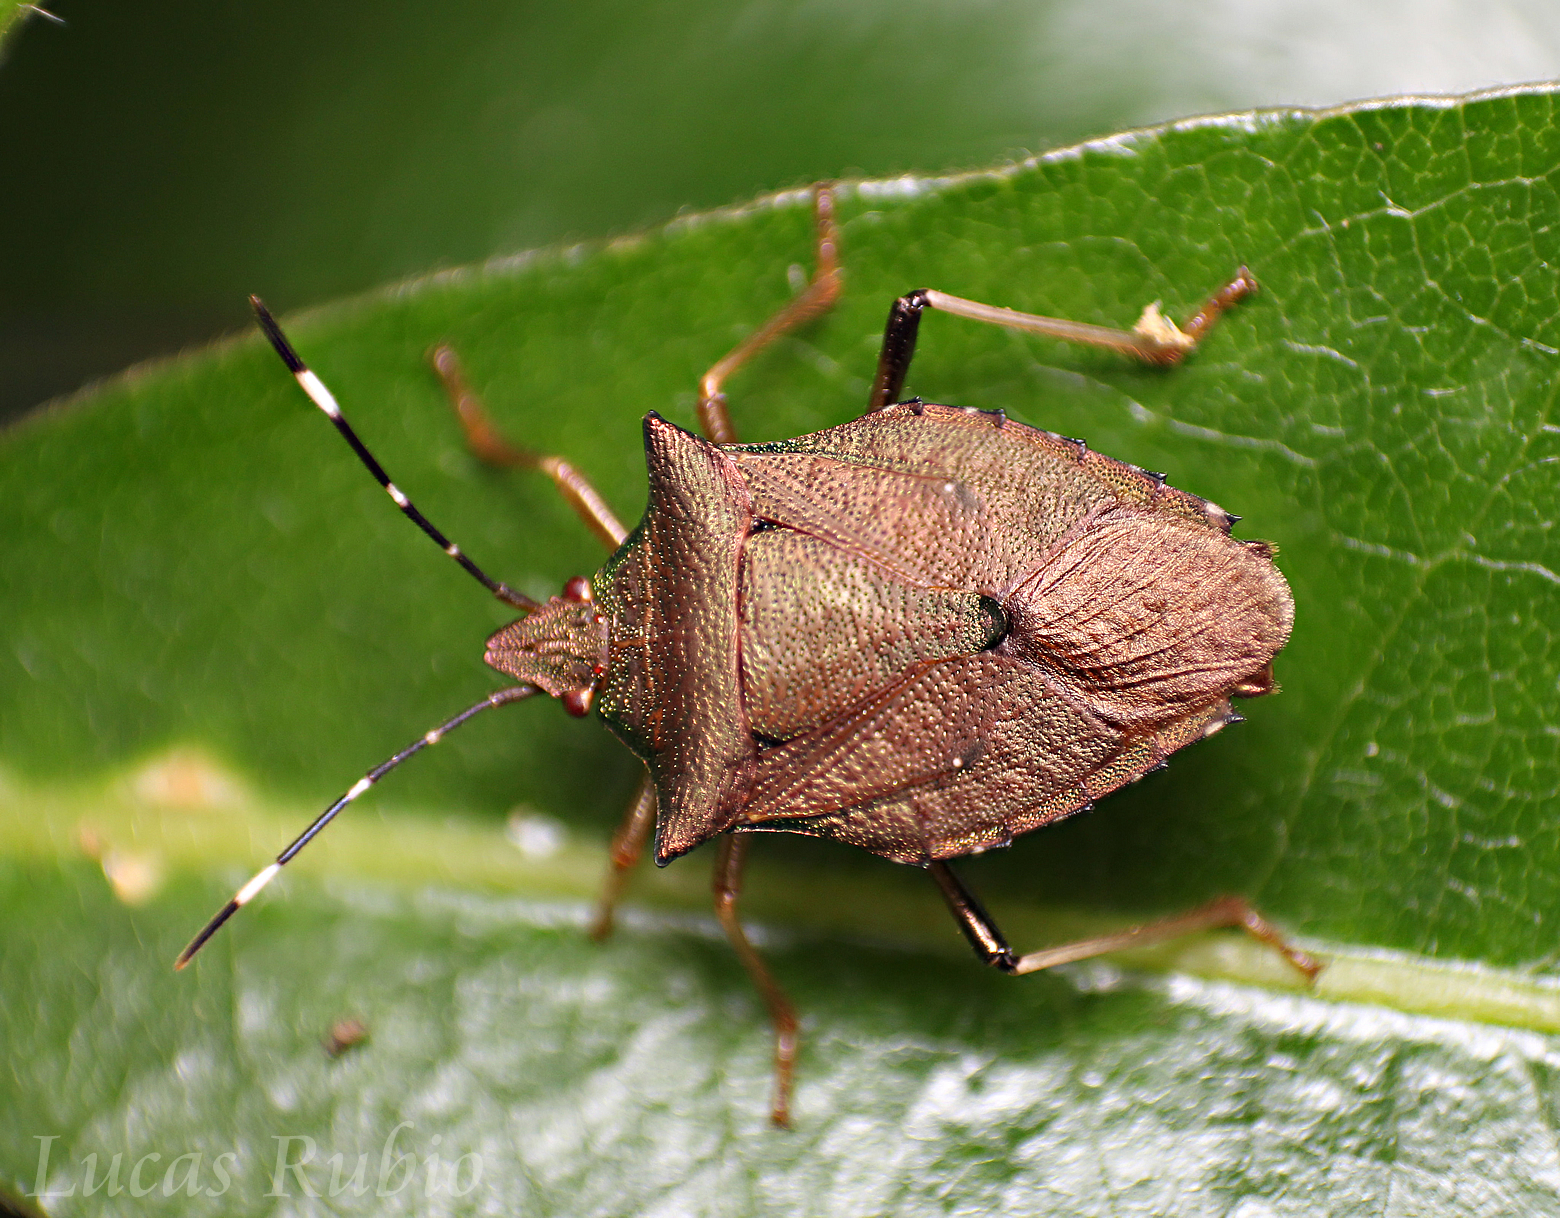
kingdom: Animalia
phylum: Arthropoda
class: Insecta
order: Hemiptera
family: Pentatomidae
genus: Myota
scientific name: Myota aerea
